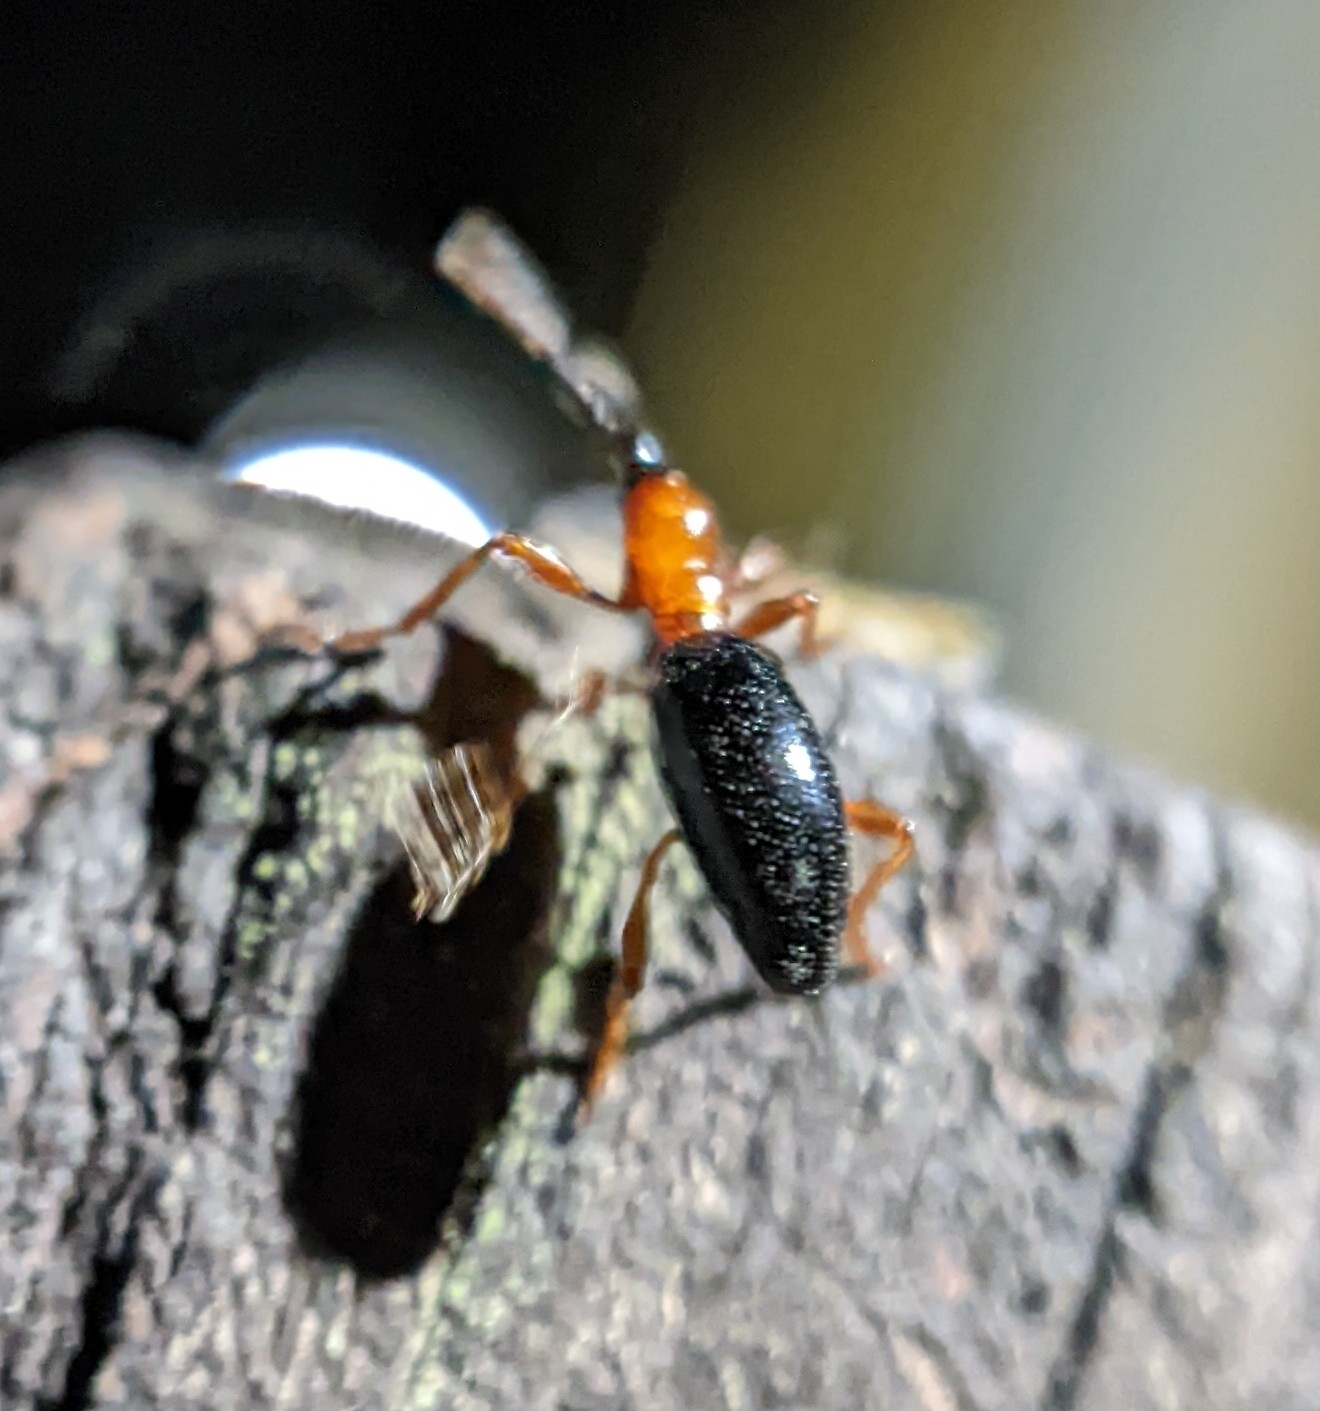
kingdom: Animalia
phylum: Arthropoda
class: Insecta
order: Coleoptera
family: Brentidae
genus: Cylas
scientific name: Cylas formicarius
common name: Sweetpotato weevil
